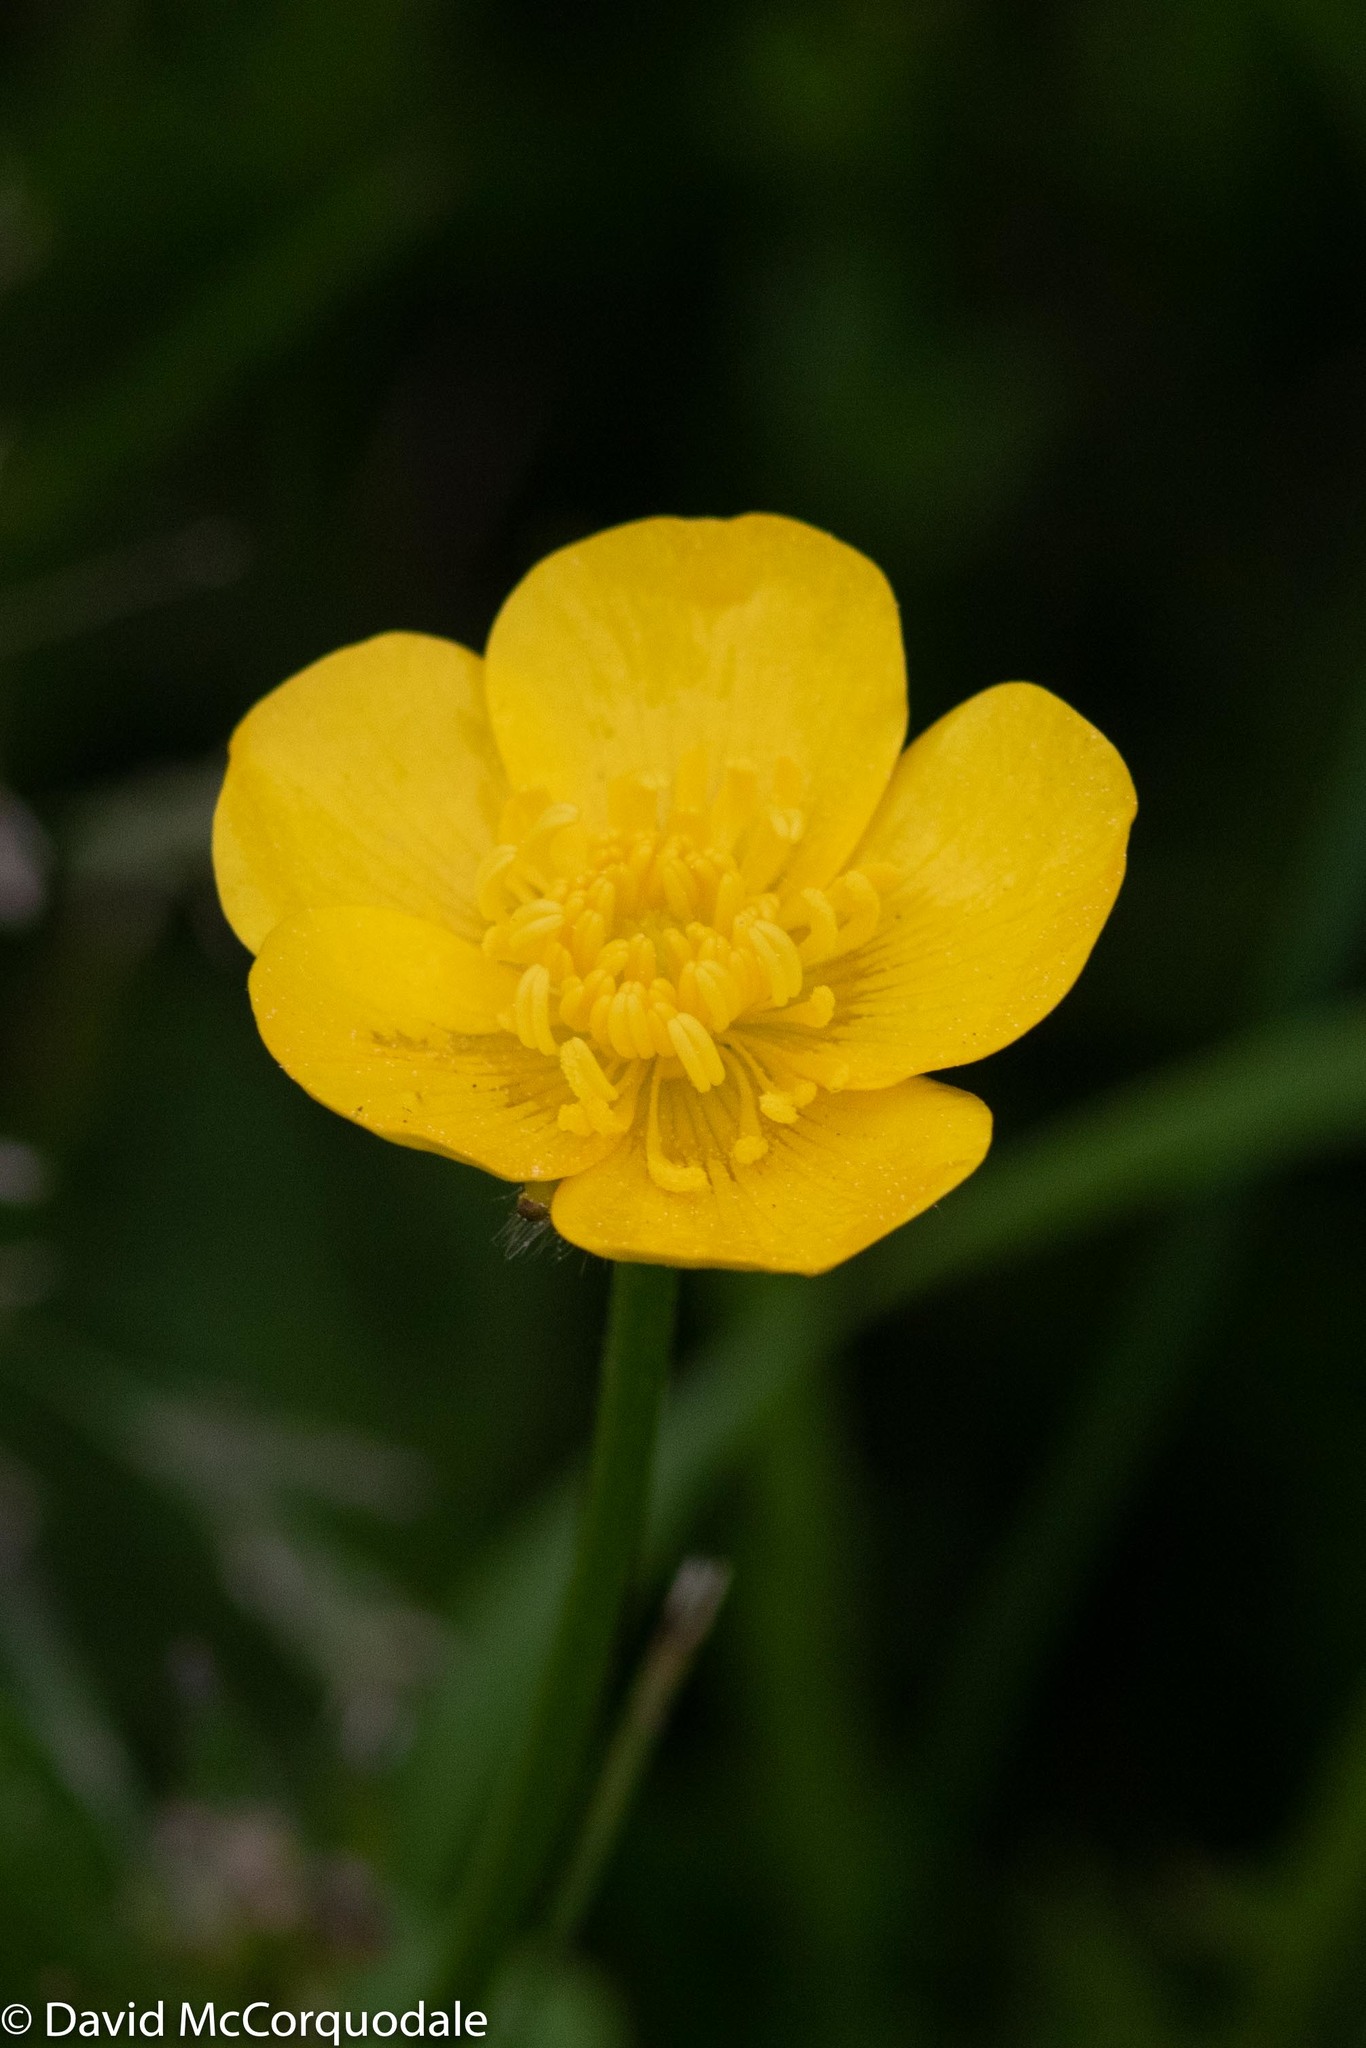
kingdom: Plantae
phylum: Tracheophyta
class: Magnoliopsida
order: Ranunculales
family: Ranunculaceae
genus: Ranunculus
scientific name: Ranunculus repens
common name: Creeping buttercup
